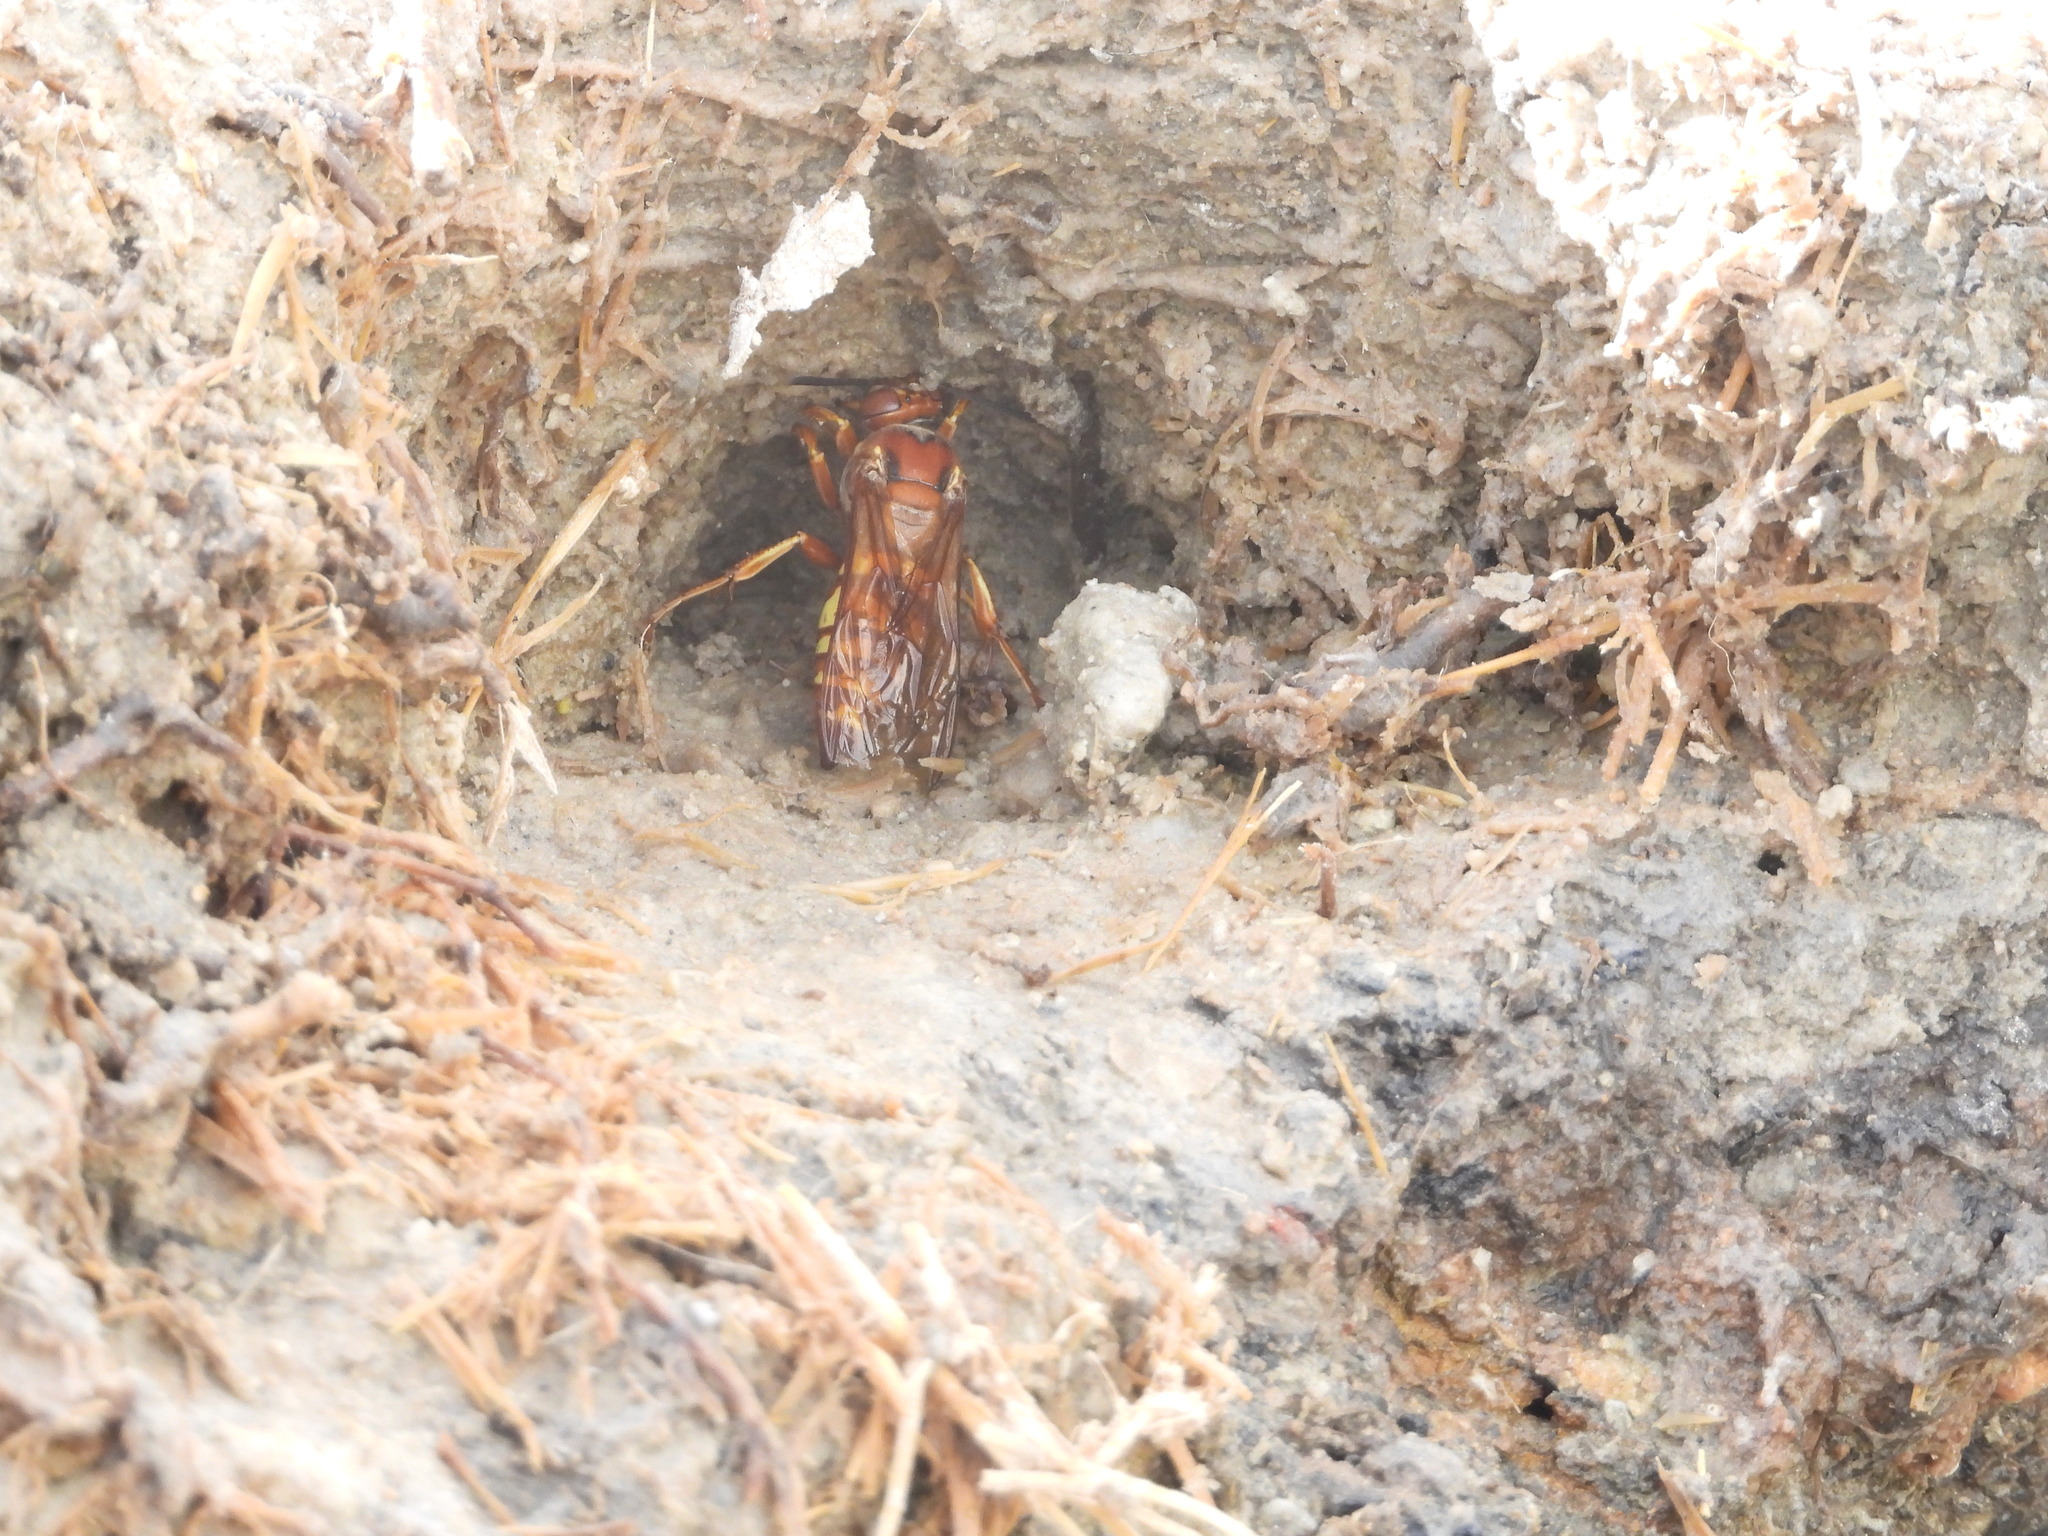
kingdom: Animalia
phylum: Arthropoda
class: Insecta
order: Hymenoptera
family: Crabronidae
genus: Sphecius
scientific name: Sphecius grandis
